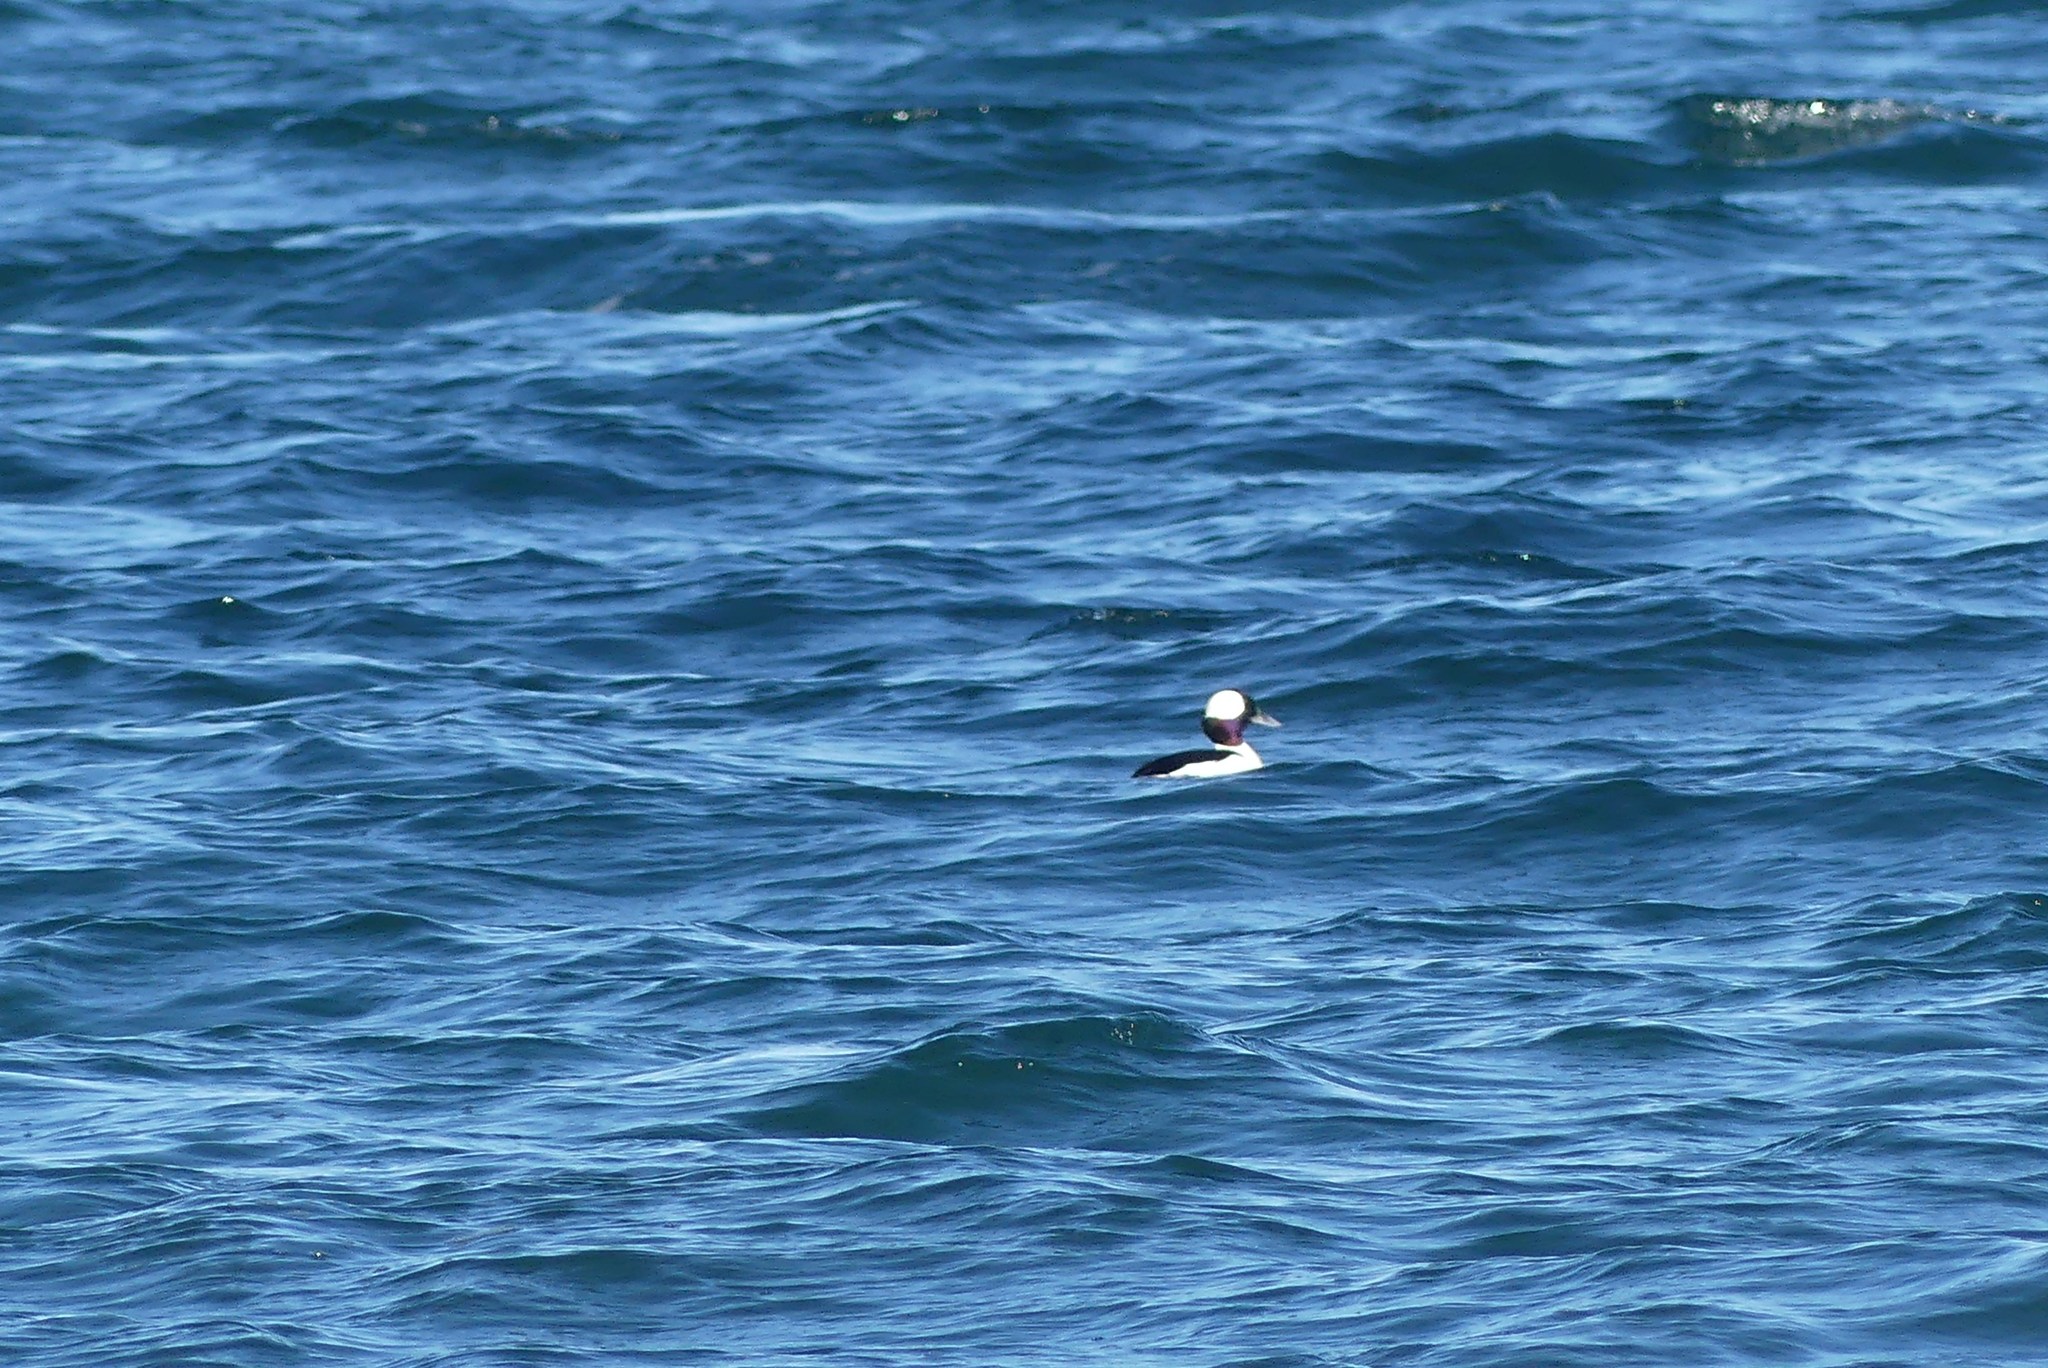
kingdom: Animalia
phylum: Chordata
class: Aves
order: Anseriformes
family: Anatidae
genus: Bucephala
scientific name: Bucephala albeola
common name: Bufflehead
